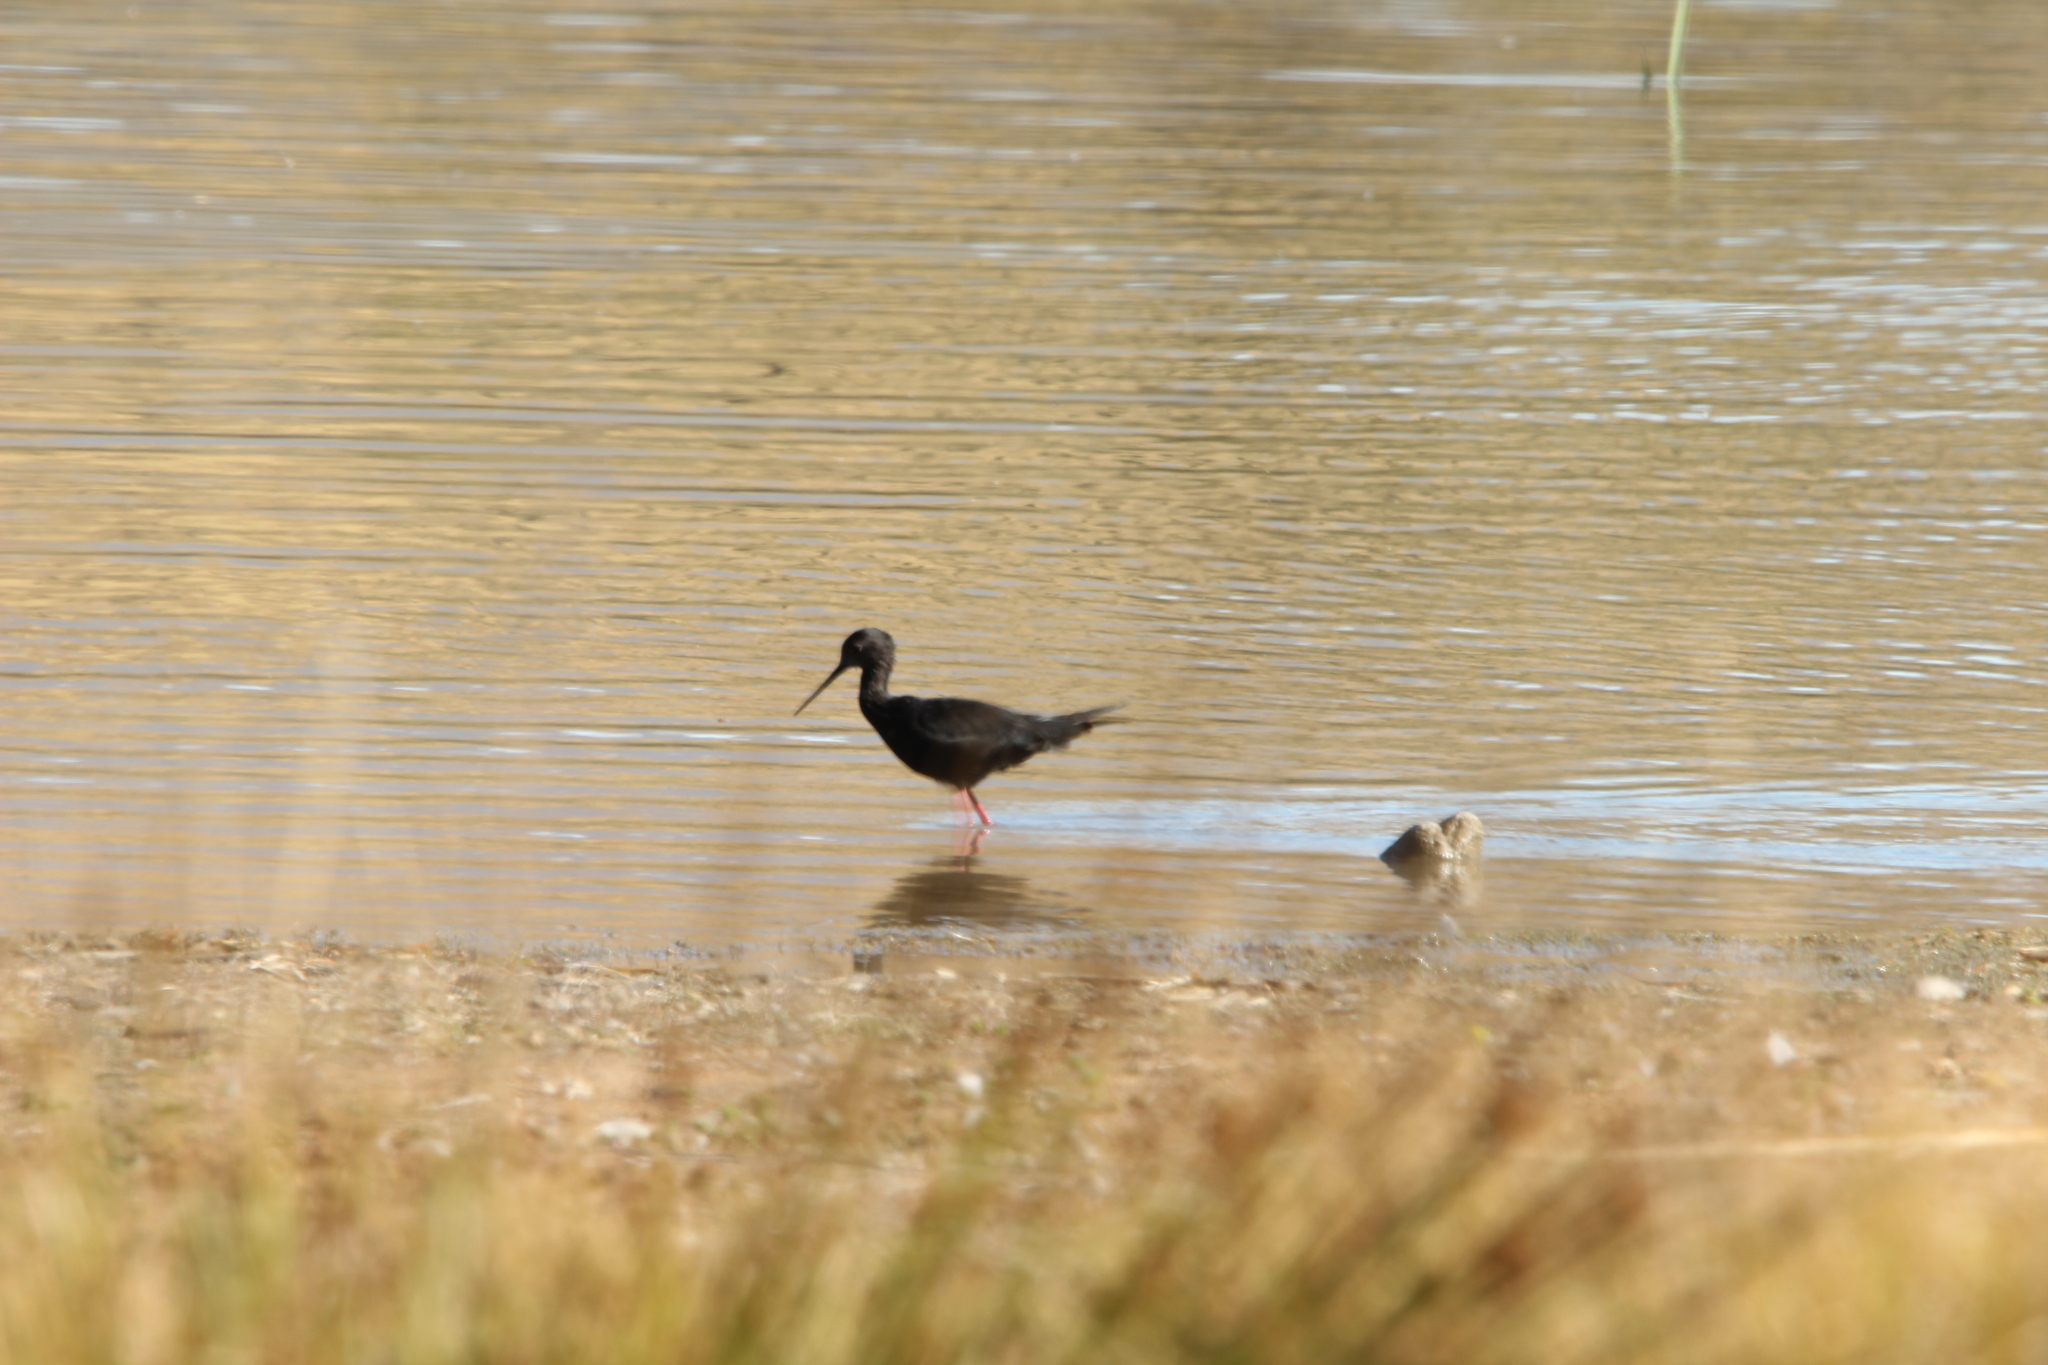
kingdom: Animalia
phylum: Chordata
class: Aves
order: Charadriiformes
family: Recurvirostridae
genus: Himantopus
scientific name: Himantopus novaezelandiae
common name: Black stilt
